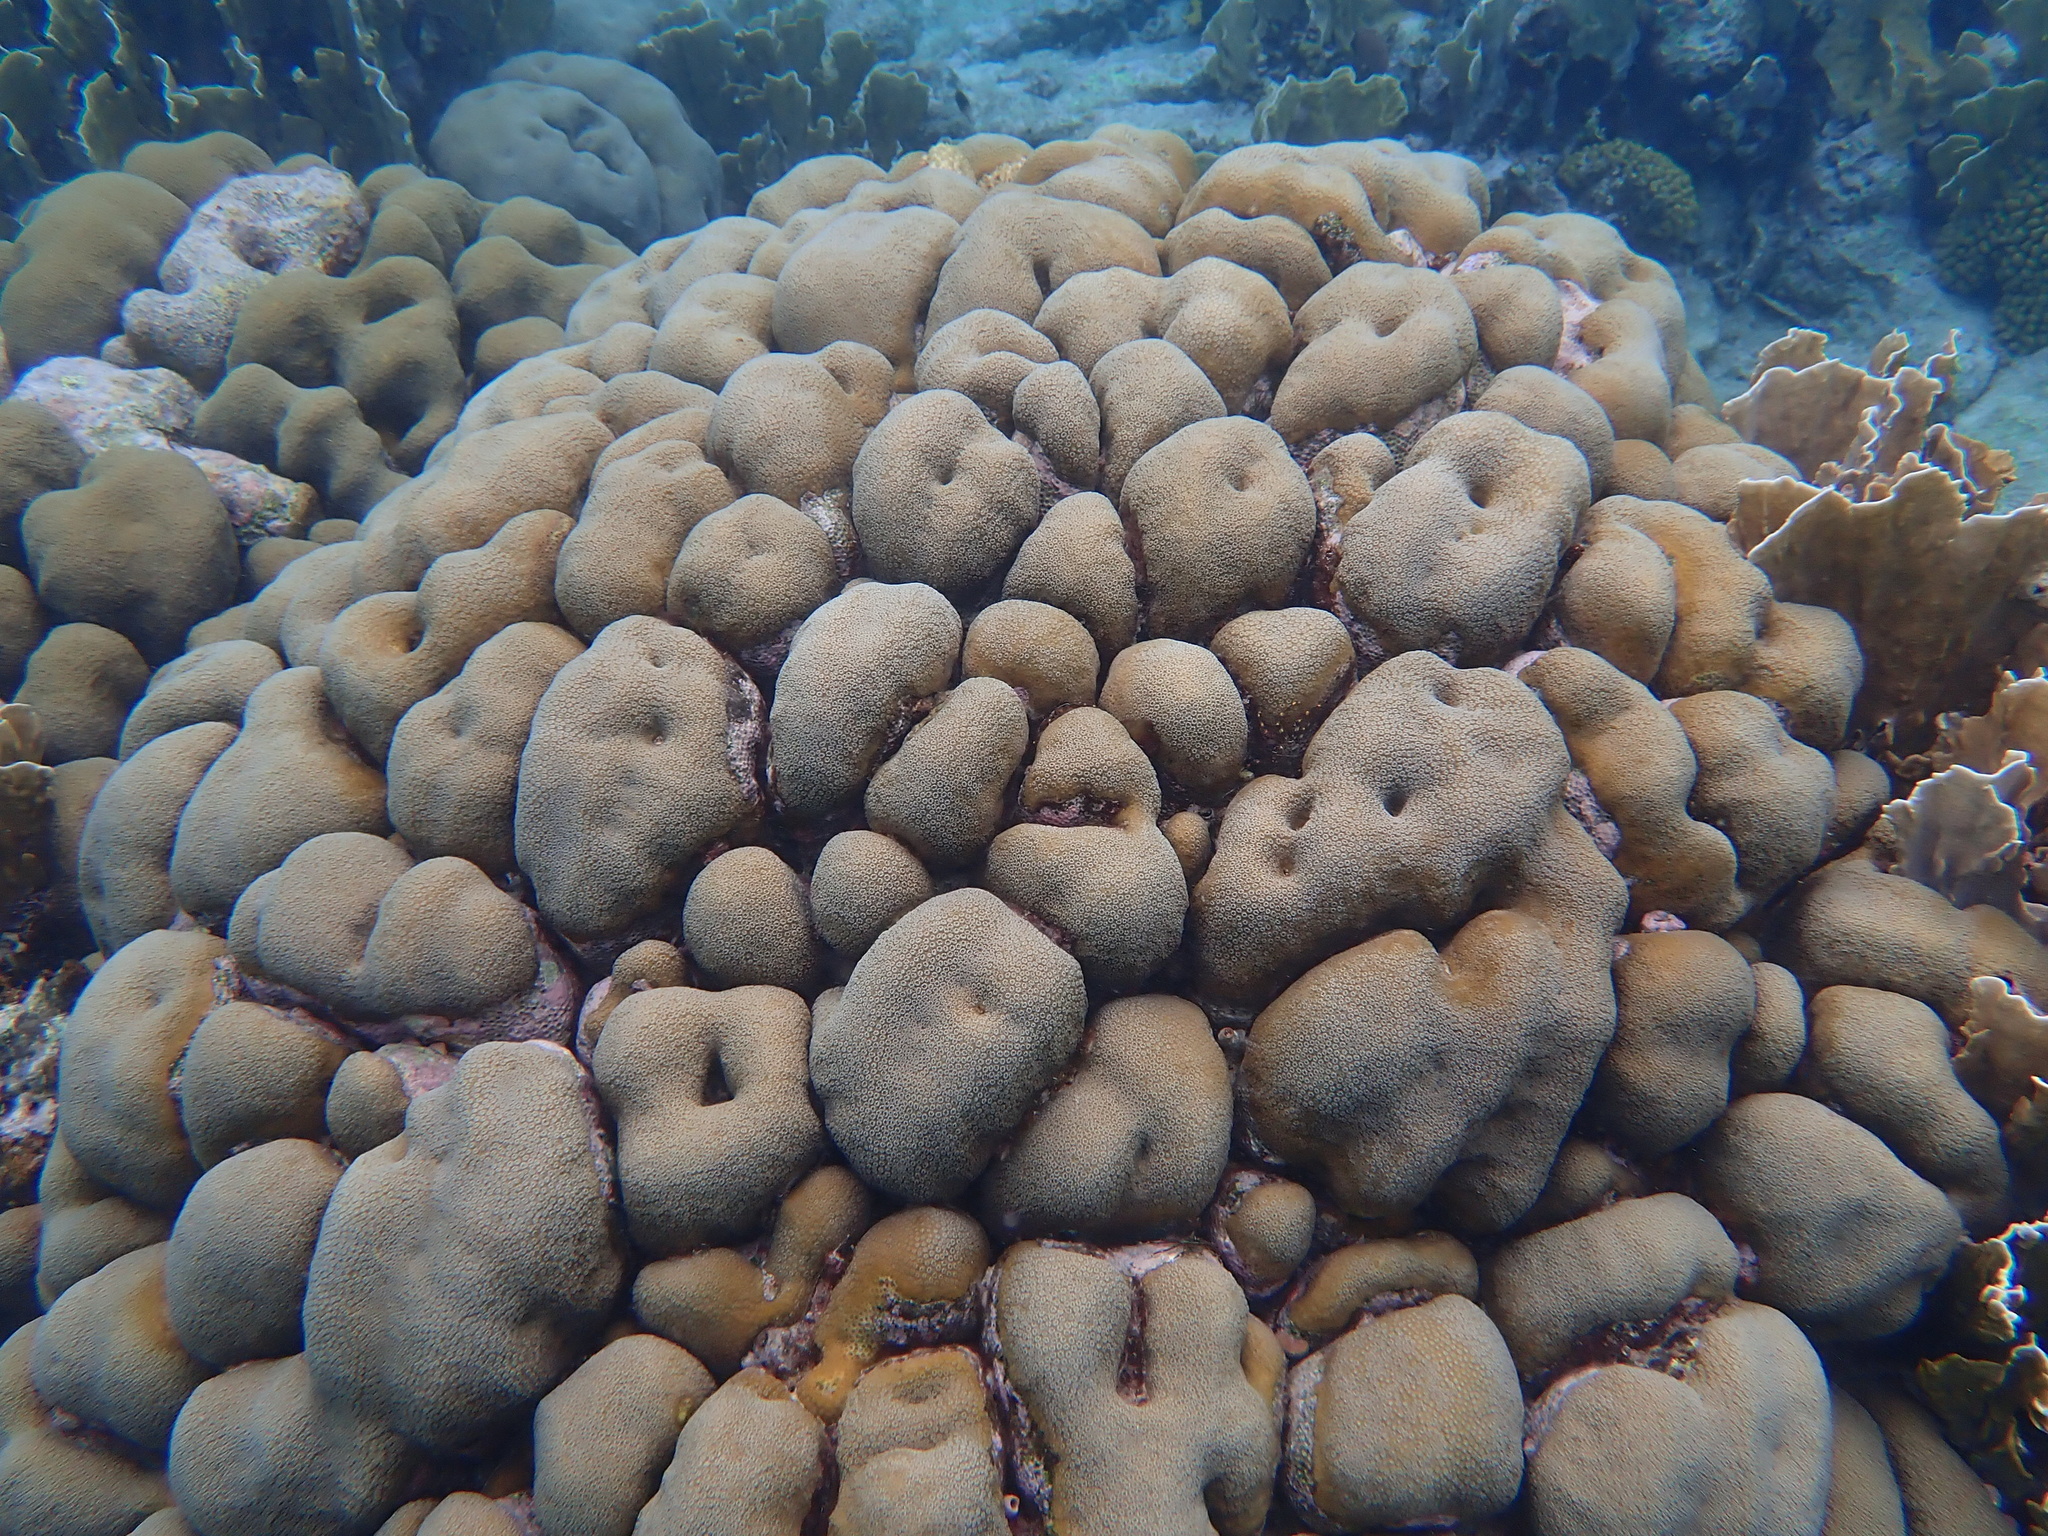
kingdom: Animalia
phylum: Cnidaria
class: Anthozoa
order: Scleractinia
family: Merulinidae
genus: Orbicella
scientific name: Orbicella annularis
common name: Boulder star coral
